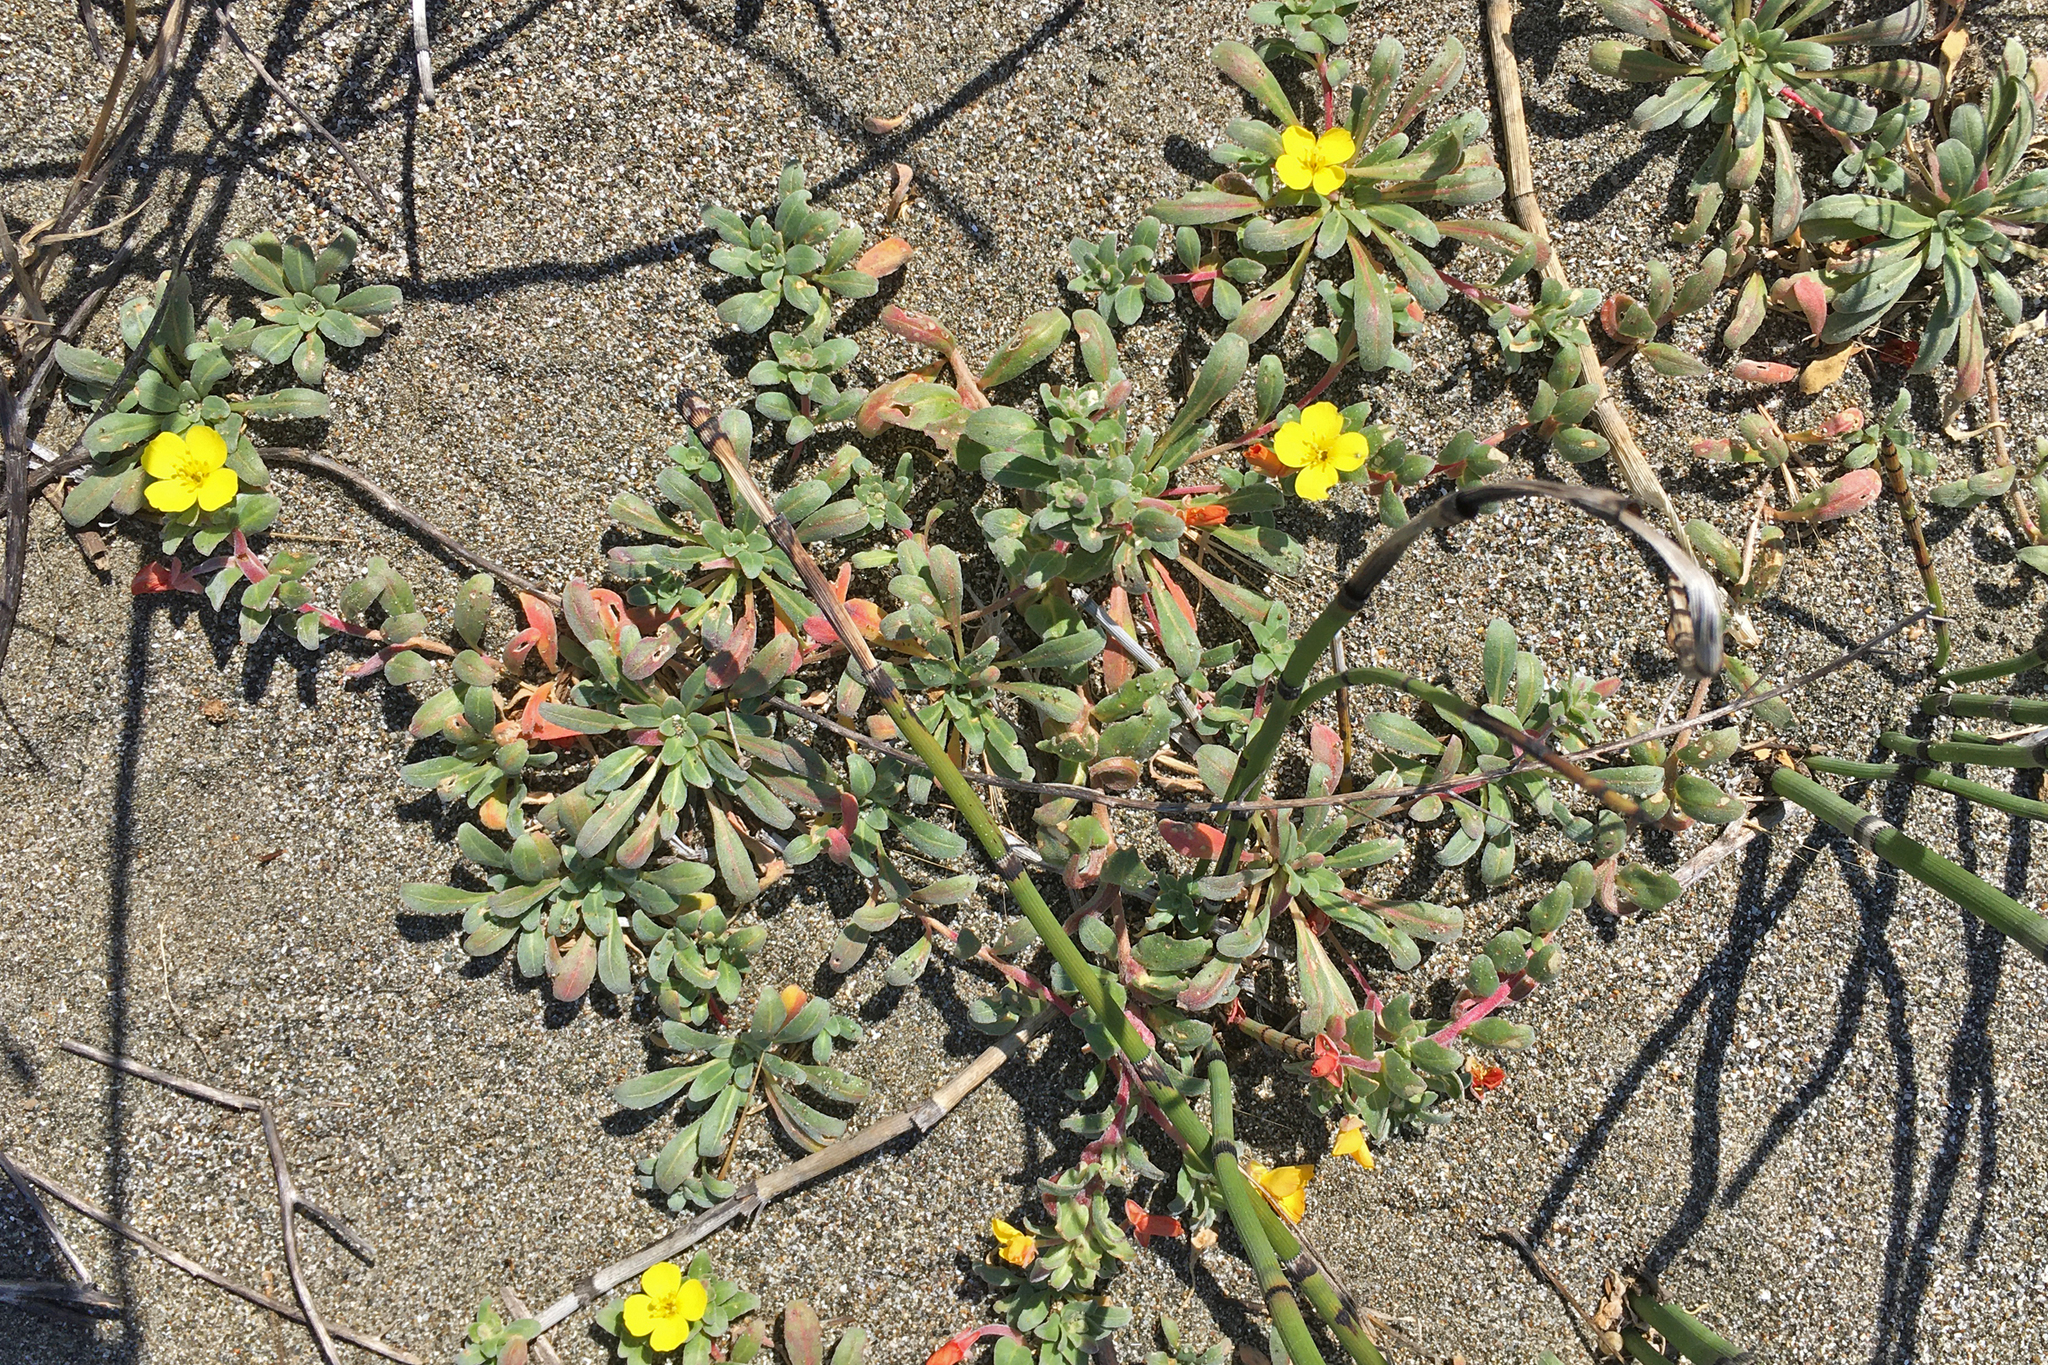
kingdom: Plantae
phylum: Tracheophyta
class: Magnoliopsida
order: Myrtales
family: Onagraceae
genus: Camissoniopsis
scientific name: Camissoniopsis cheiranthifolia
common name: Beach suncup
